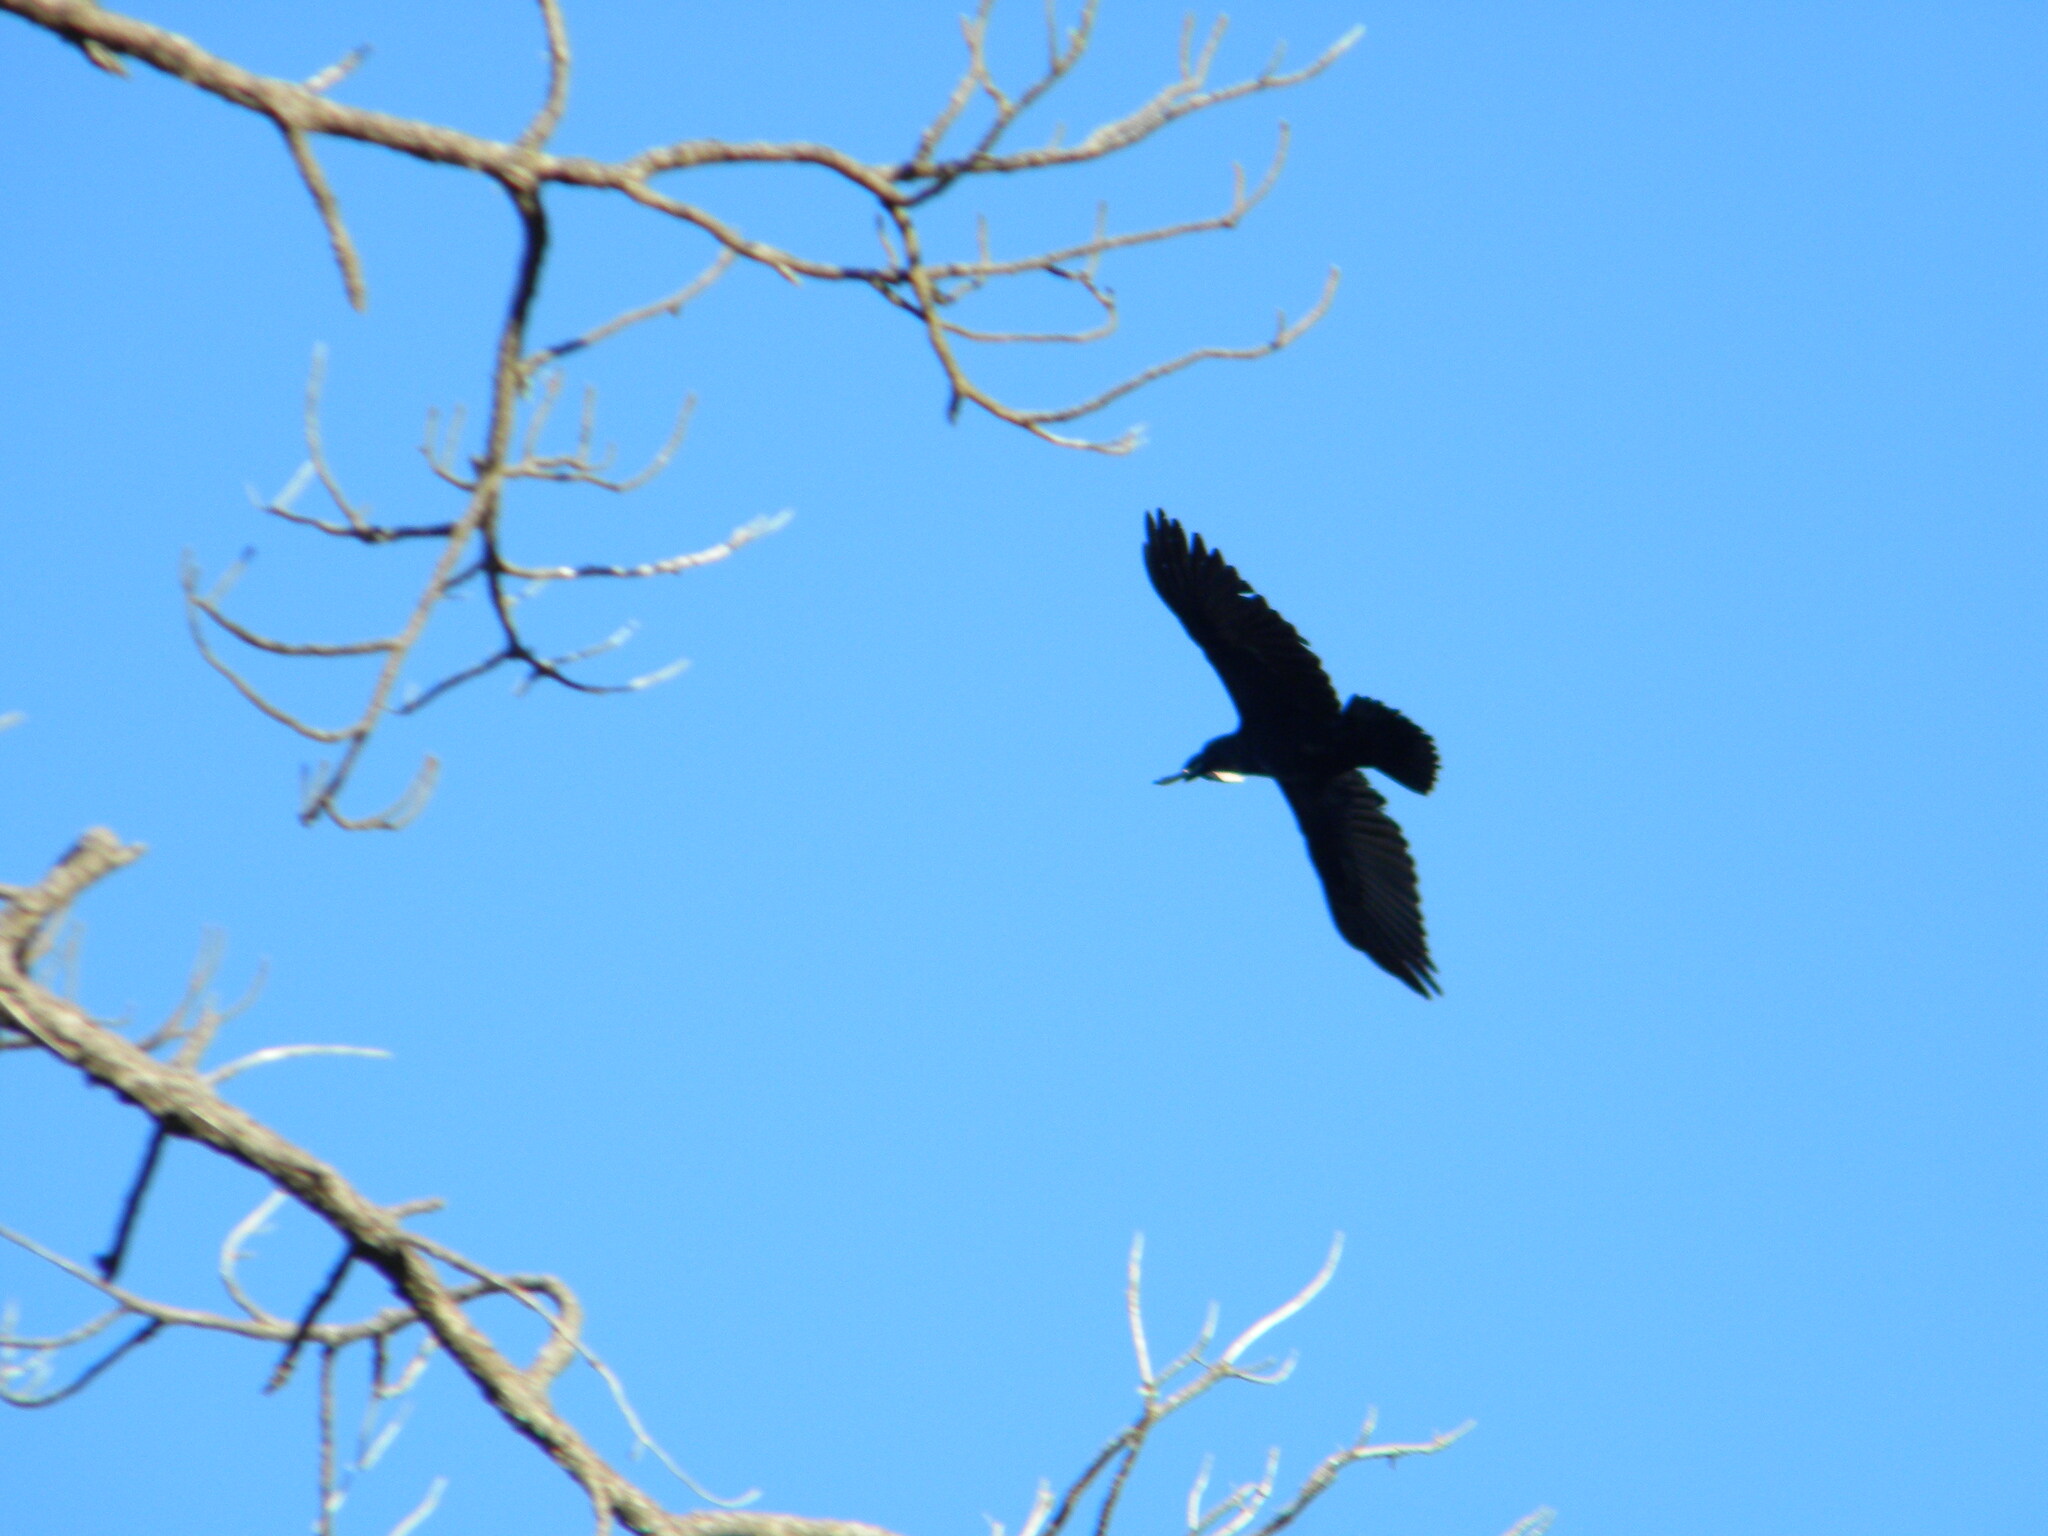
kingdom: Animalia
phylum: Chordata
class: Aves
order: Passeriformes
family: Corvidae
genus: Corvus
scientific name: Corvus albicollis
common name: White-necked raven
